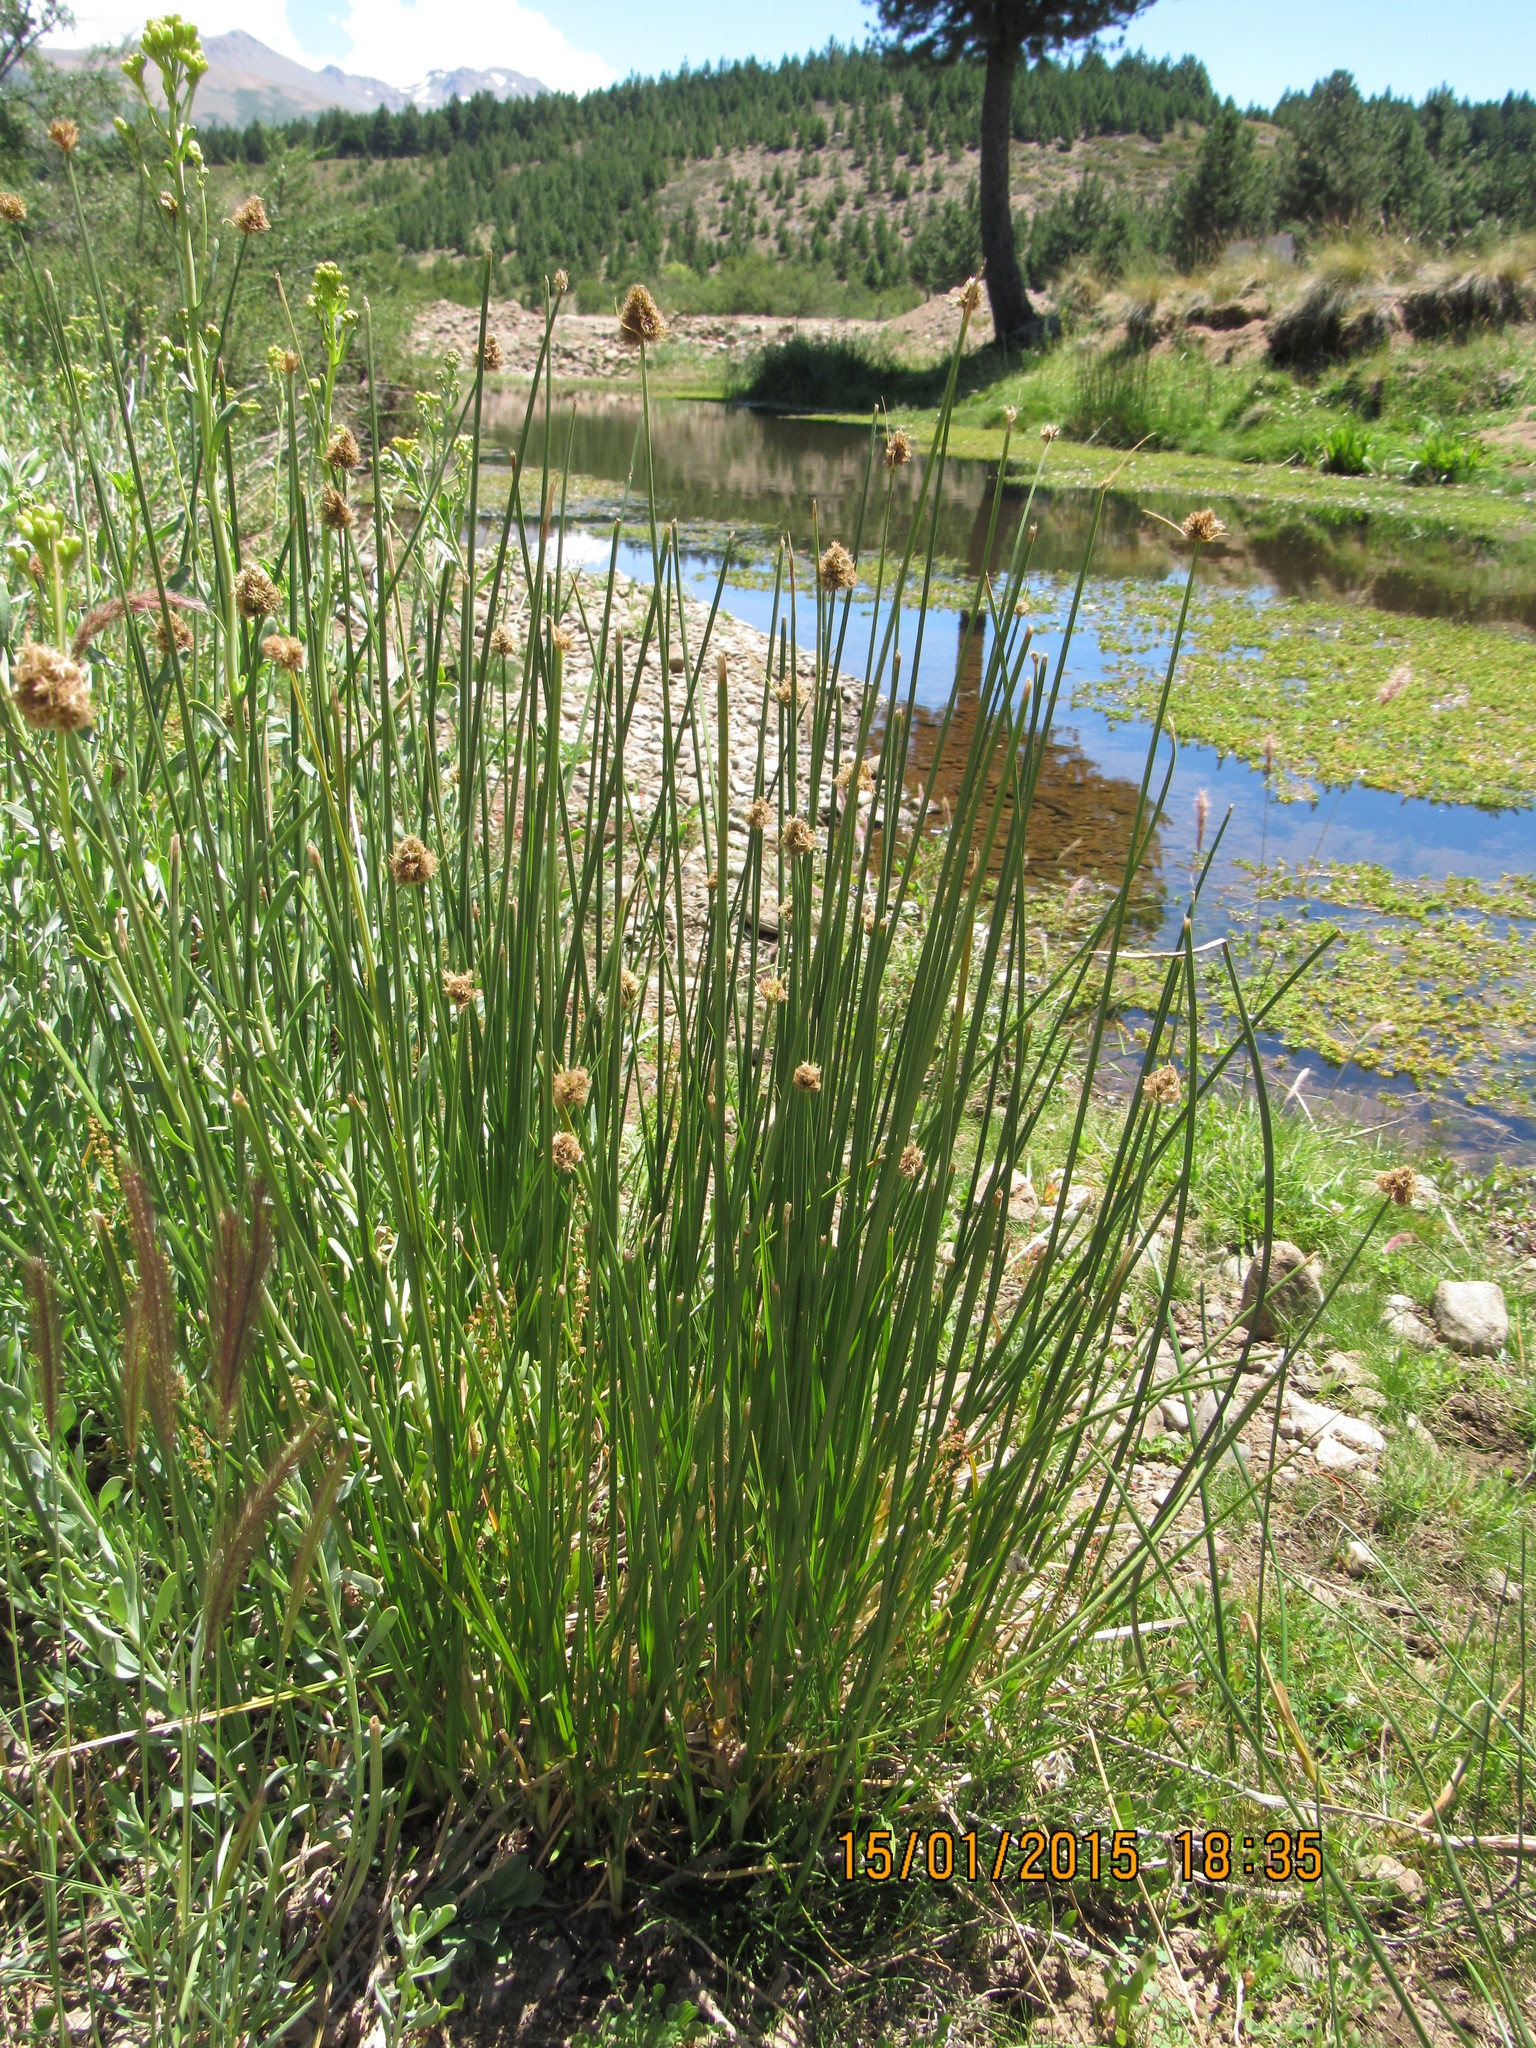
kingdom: Plantae
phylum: Tracheophyta
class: Liliopsida
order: Poales
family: Cyperaceae
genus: Carex
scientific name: Carex firmicaulis
